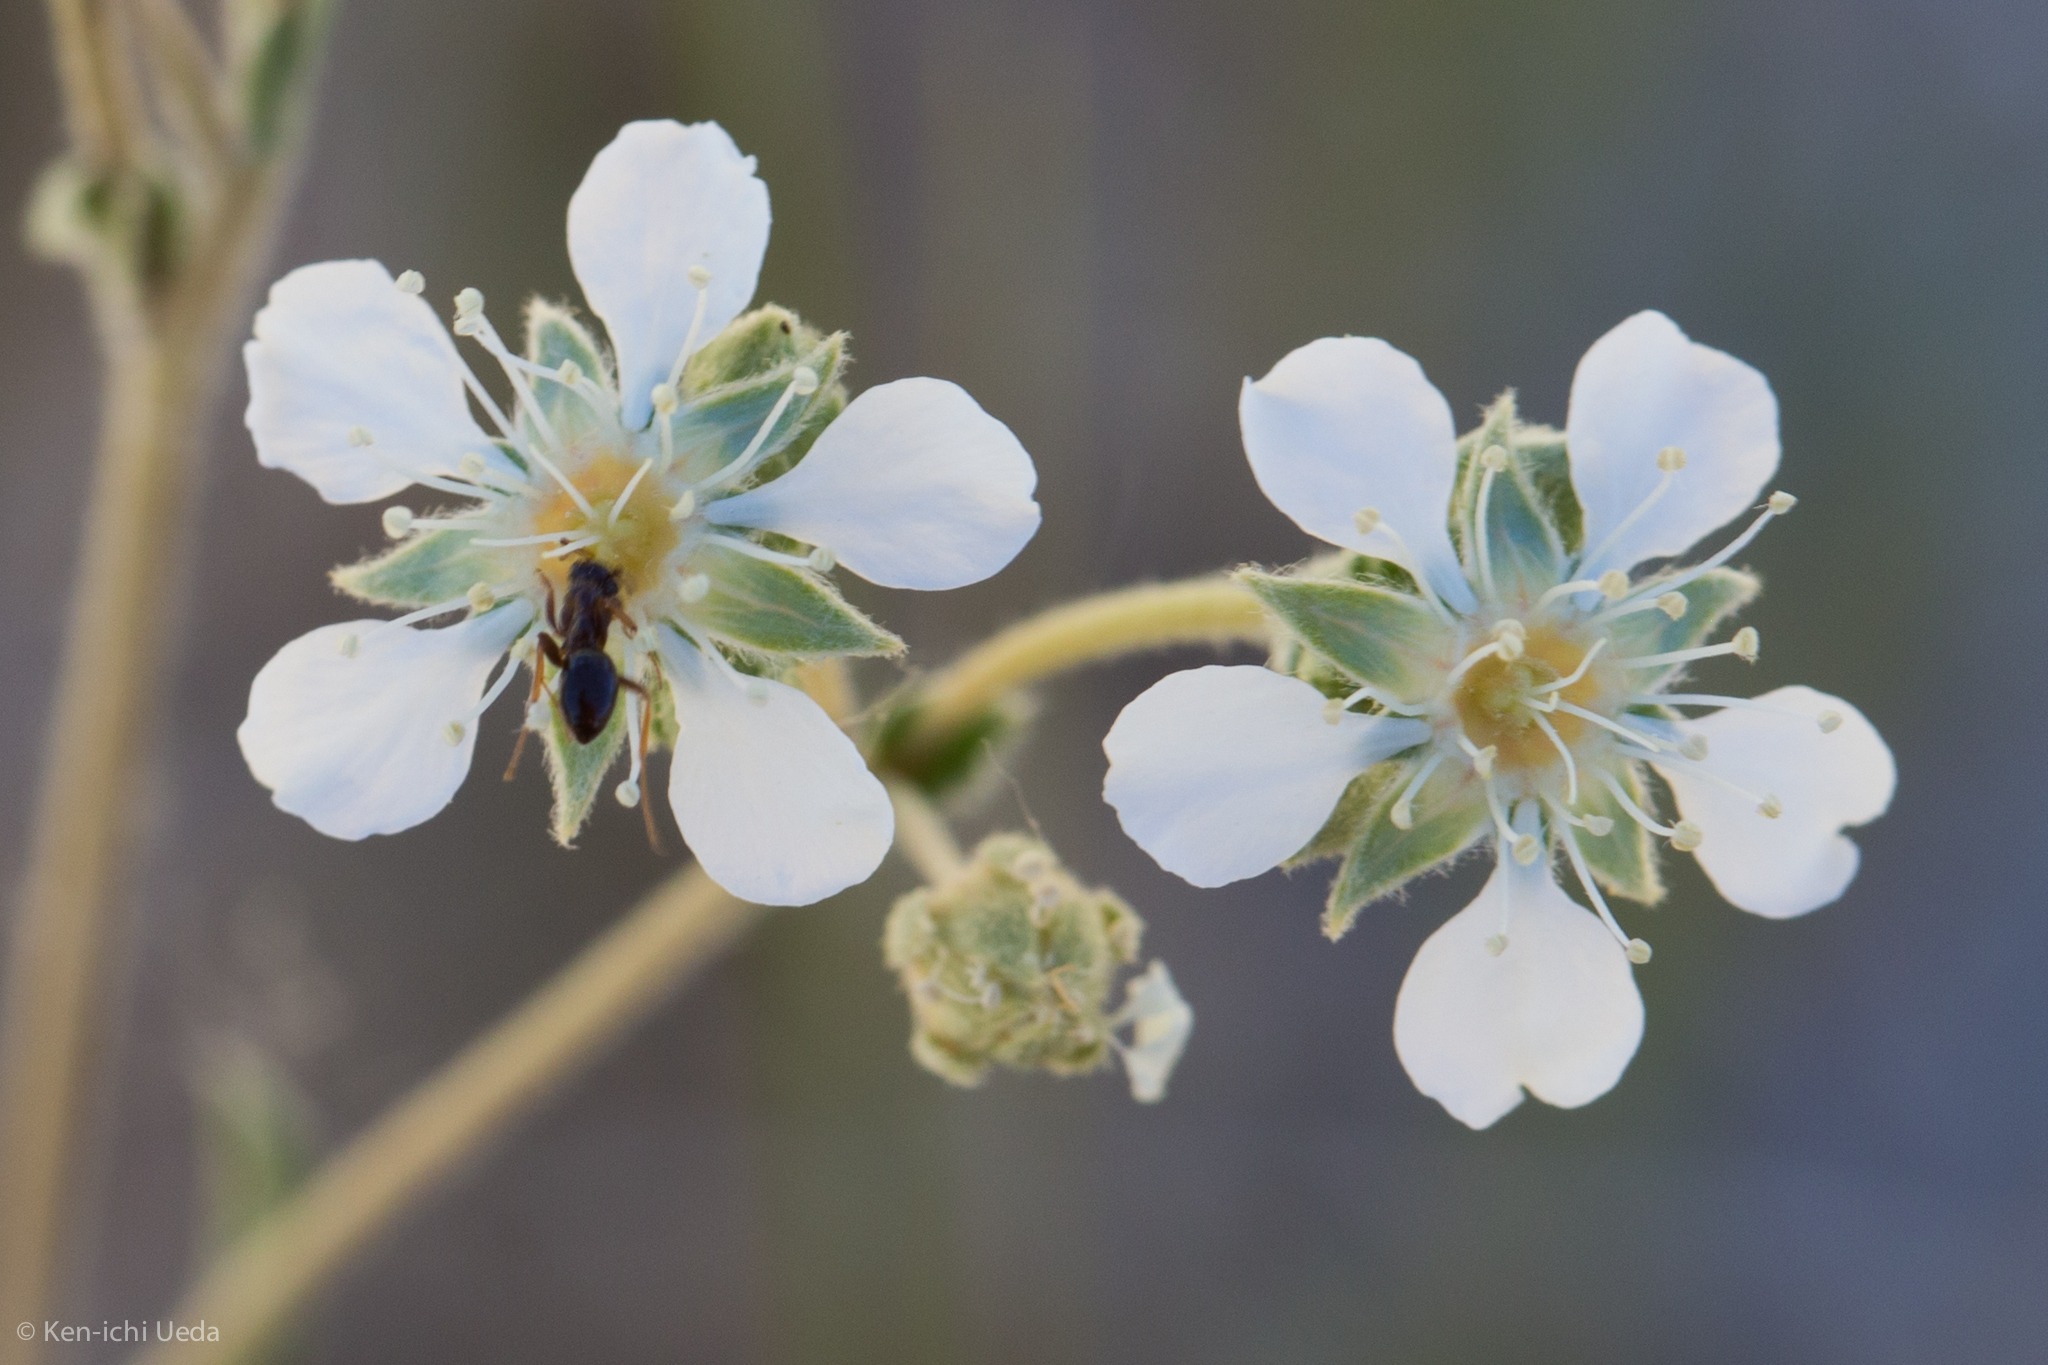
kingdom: Plantae
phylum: Tracheophyta
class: Magnoliopsida
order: Rosales
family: Rosaceae
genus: Potentilla
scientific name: Potentilla kingii
